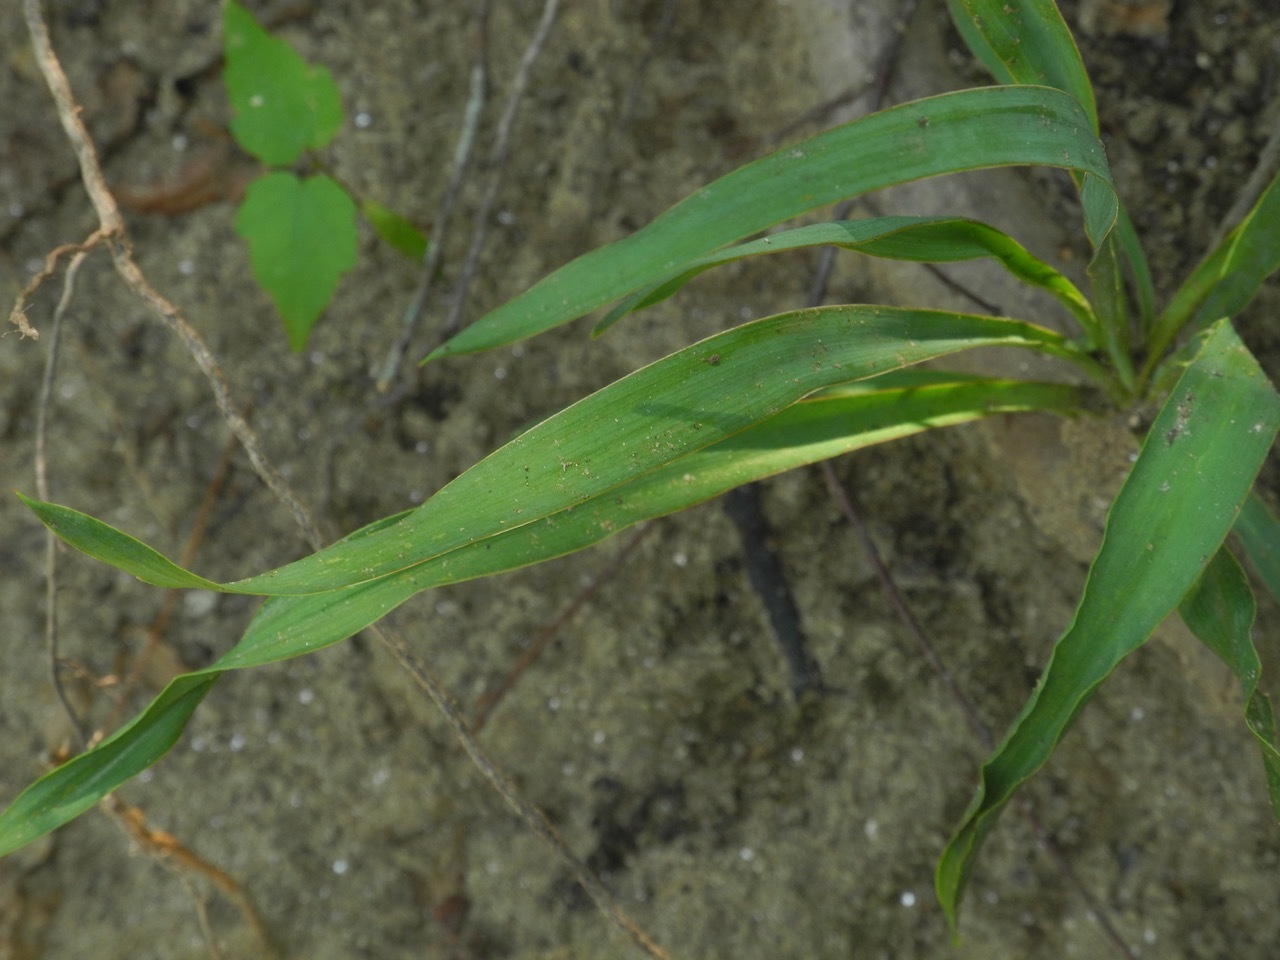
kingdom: Plantae
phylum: Tracheophyta
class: Liliopsida
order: Asparagales
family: Asparagaceae
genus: Yucca
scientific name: Yucca filamentosa
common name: Adam's-needle
